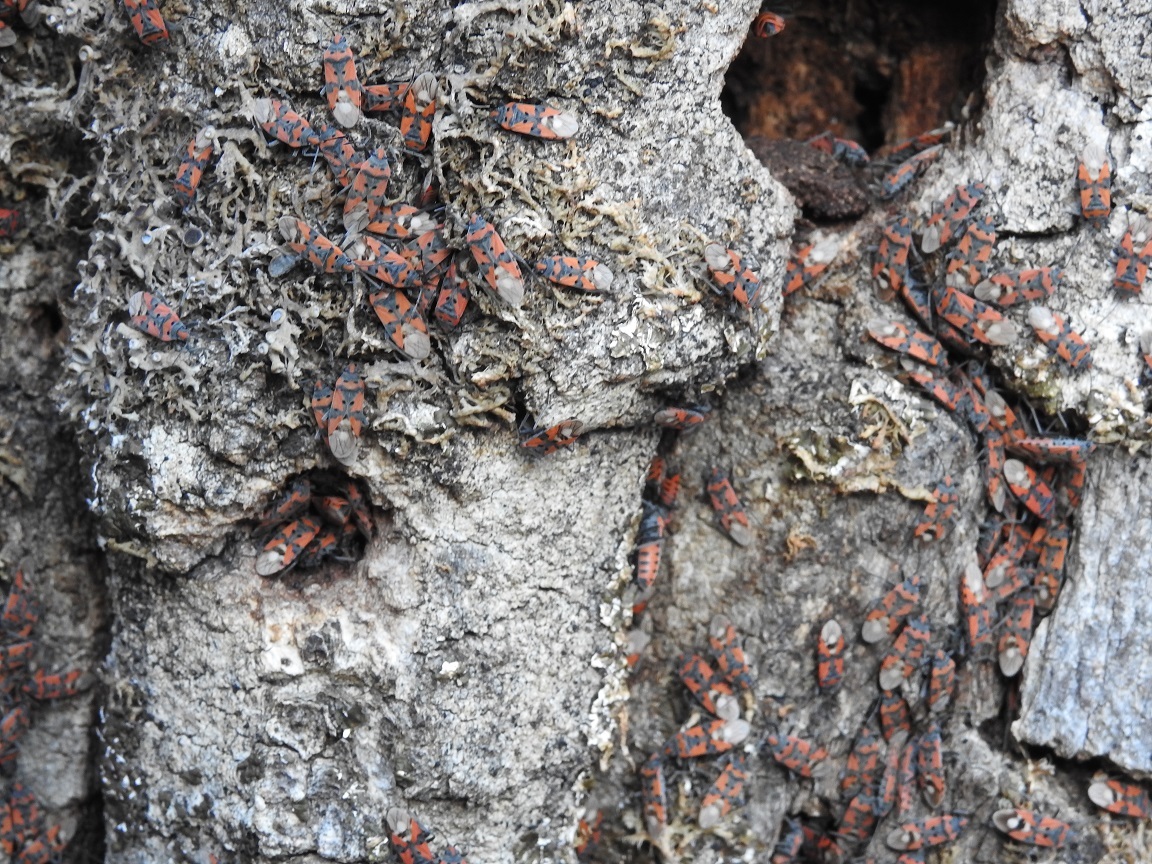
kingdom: Animalia
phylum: Arthropoda
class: Insecta
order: Hemiptera
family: Lygaeidae
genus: Lygaeus
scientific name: Lygaeus equestris
